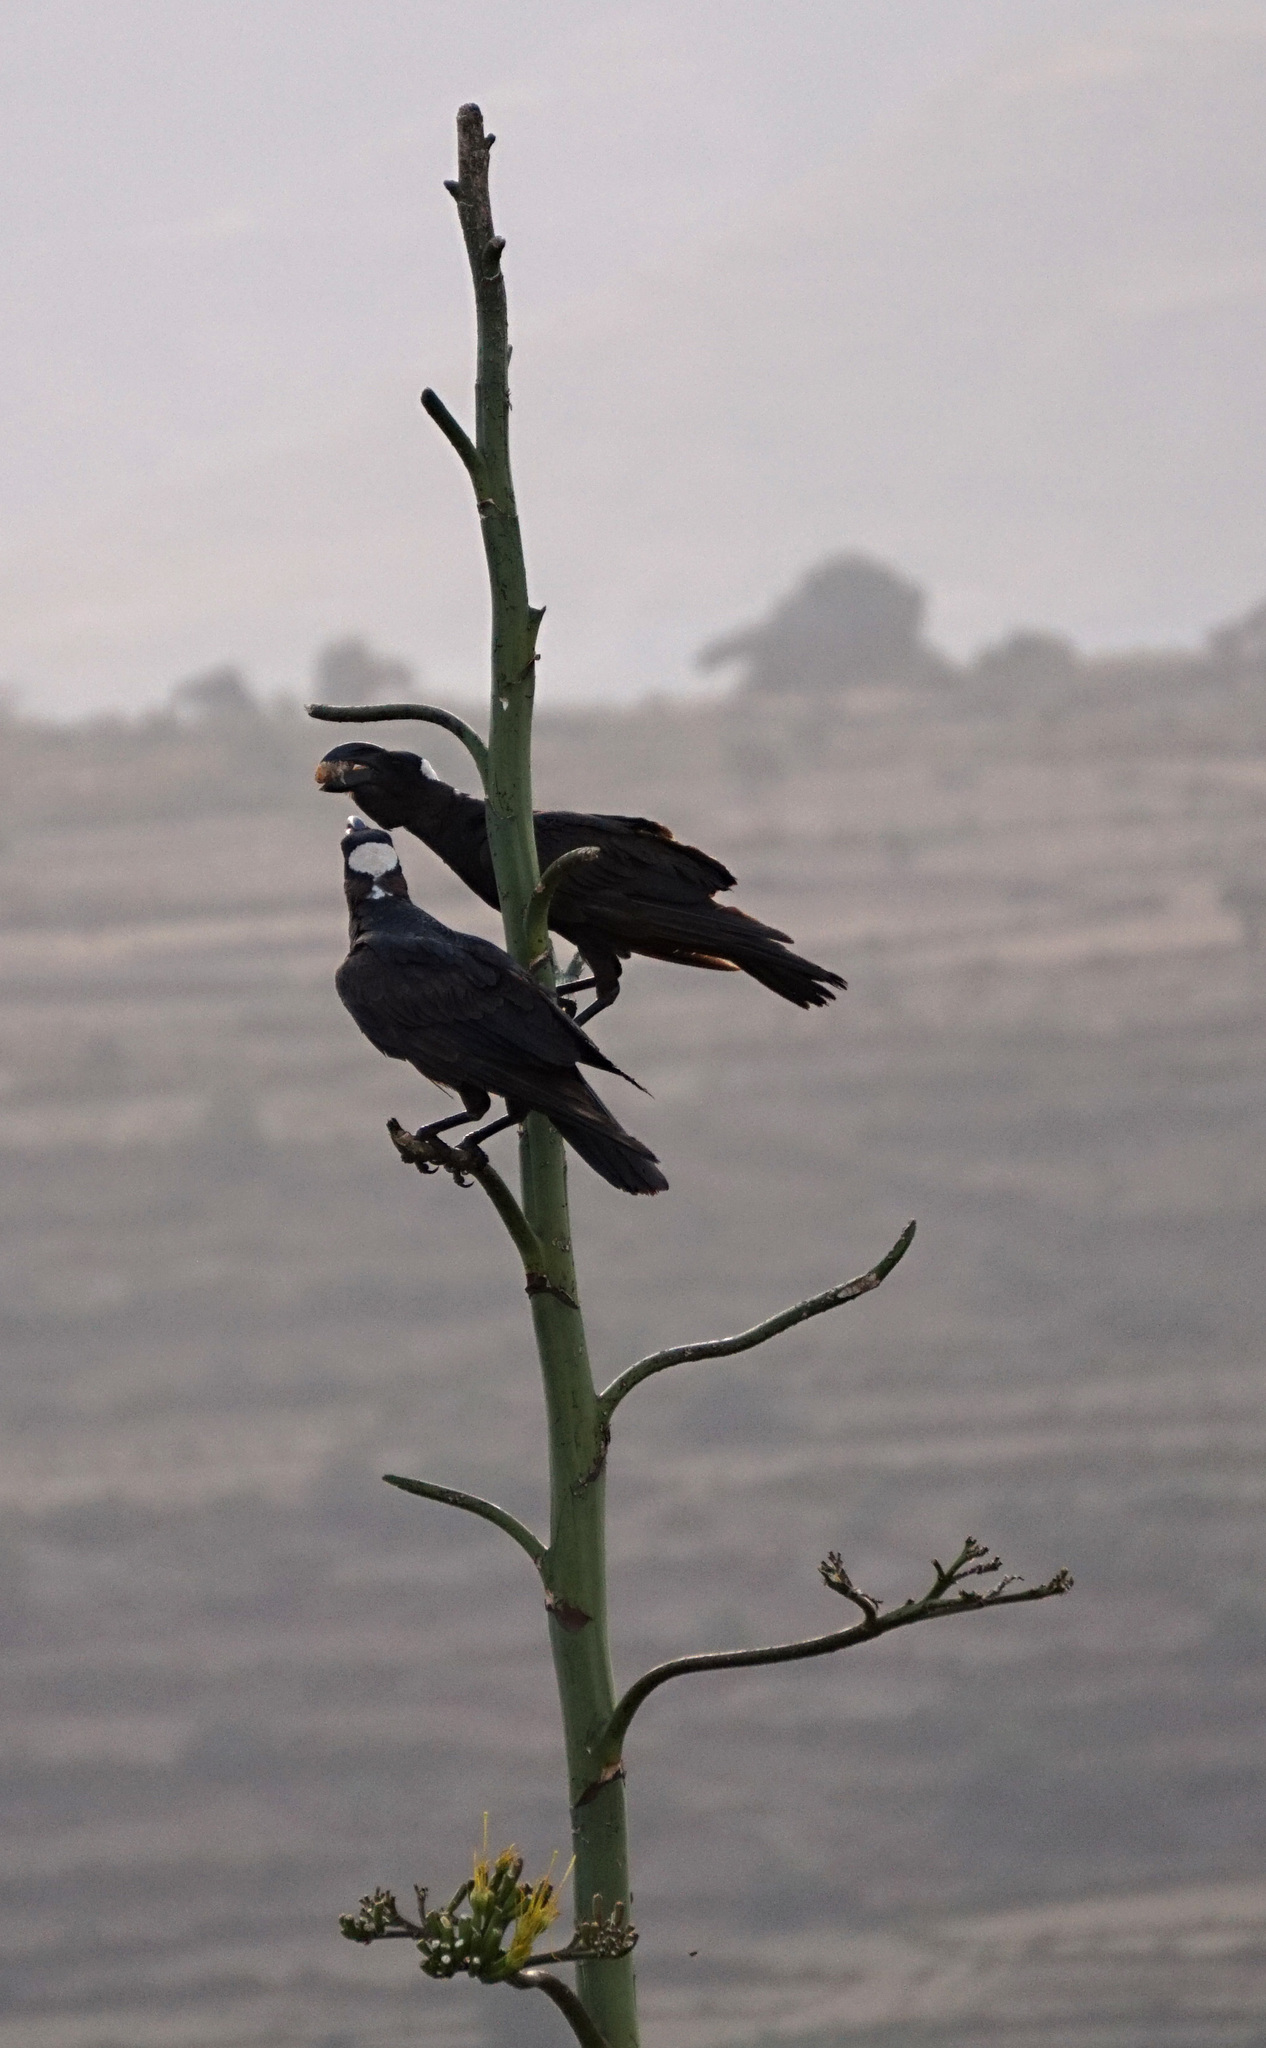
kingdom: Animalia
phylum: Chordata
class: Aves
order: Passeriformes
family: Corvidae
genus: Corvus
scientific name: Corvus crassirostris
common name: Thick-billed raven
